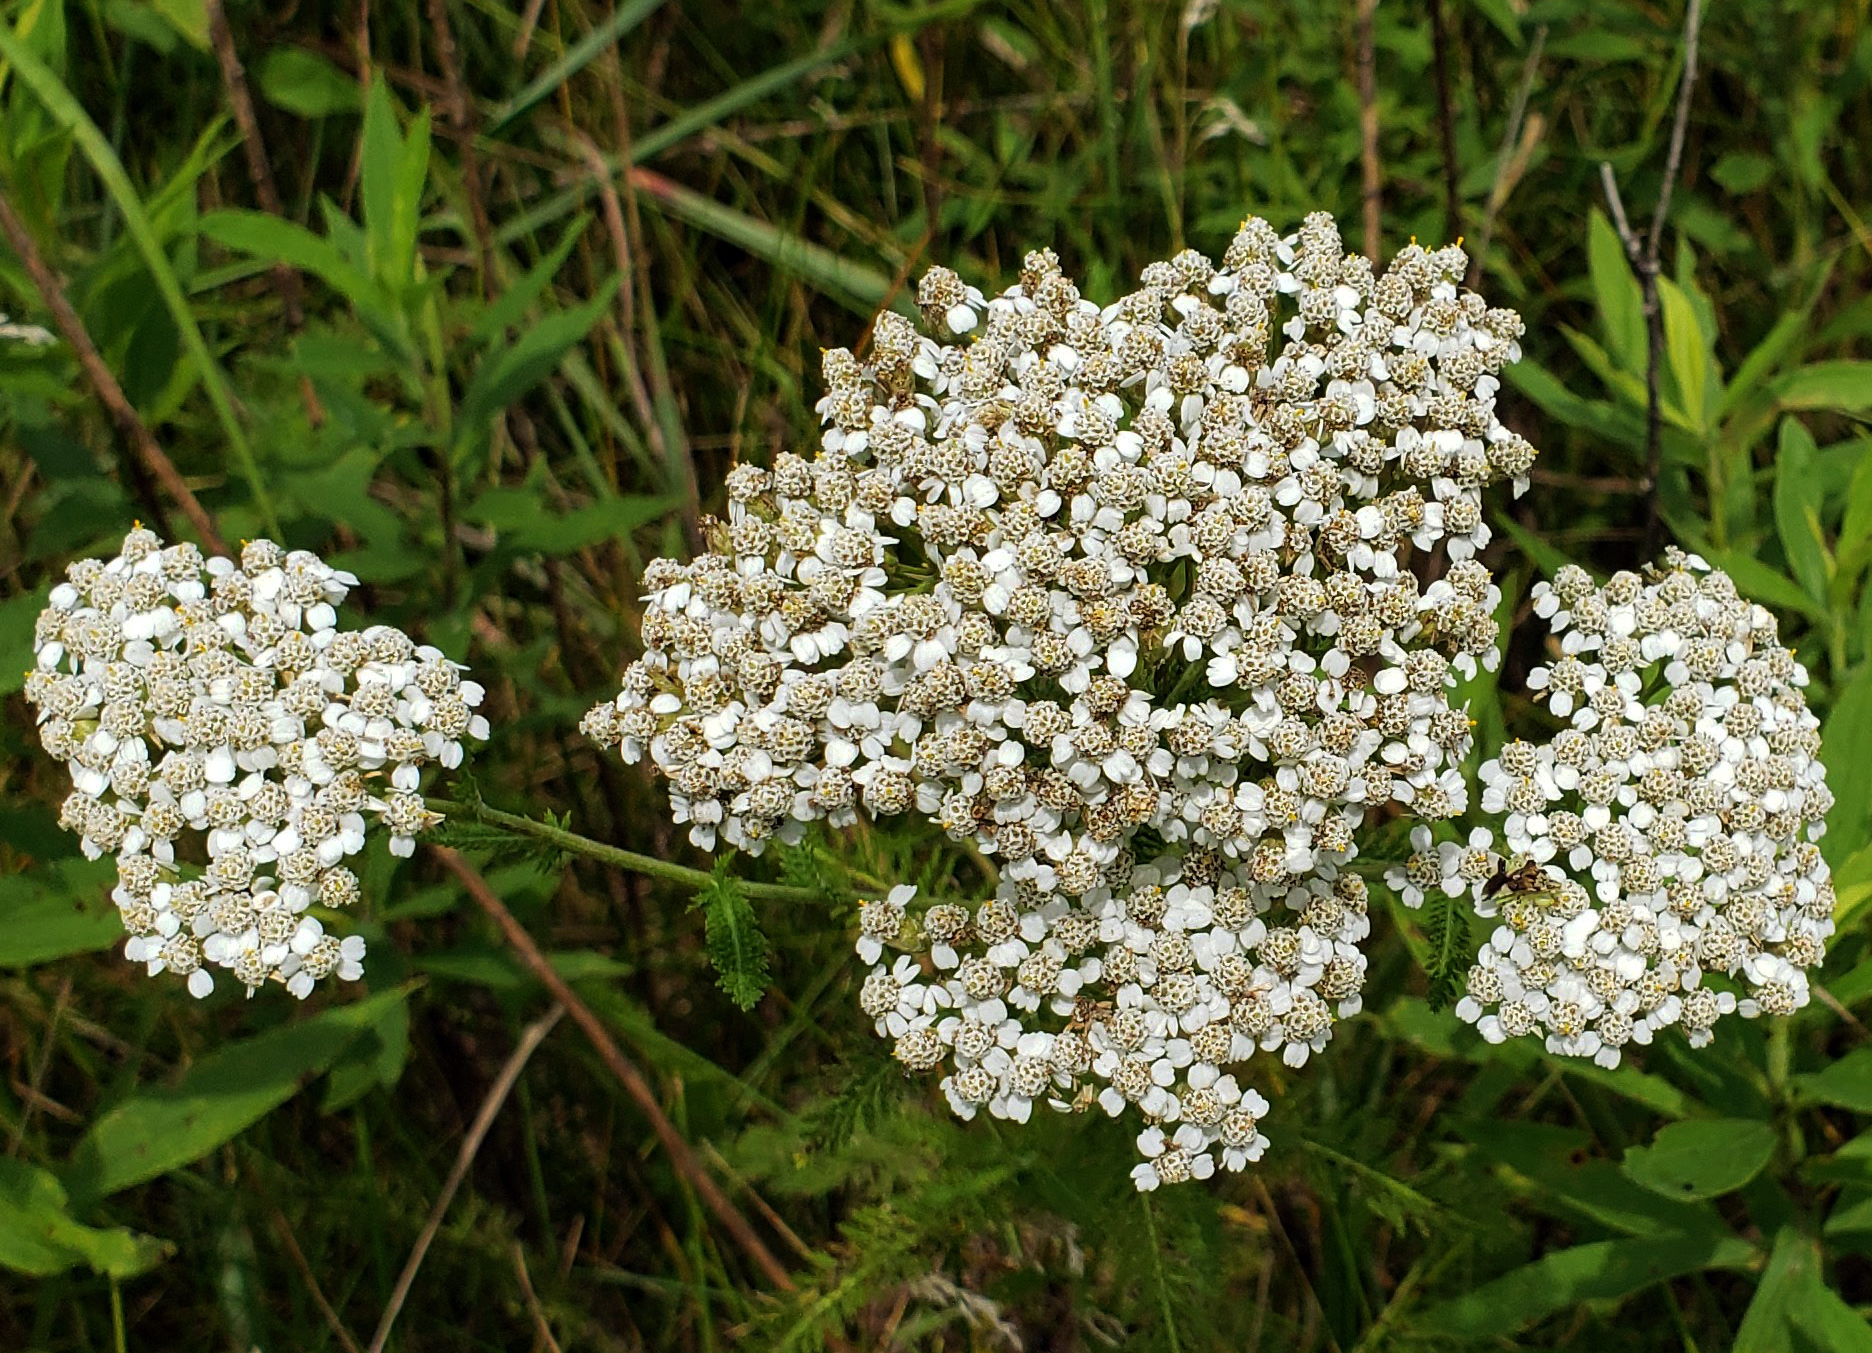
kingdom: Plantae
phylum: Tracheophyta
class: Magnoliopsida
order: Asterales
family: Asteraceae
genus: Achillea
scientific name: Achillea millefolium
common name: Yarrow
